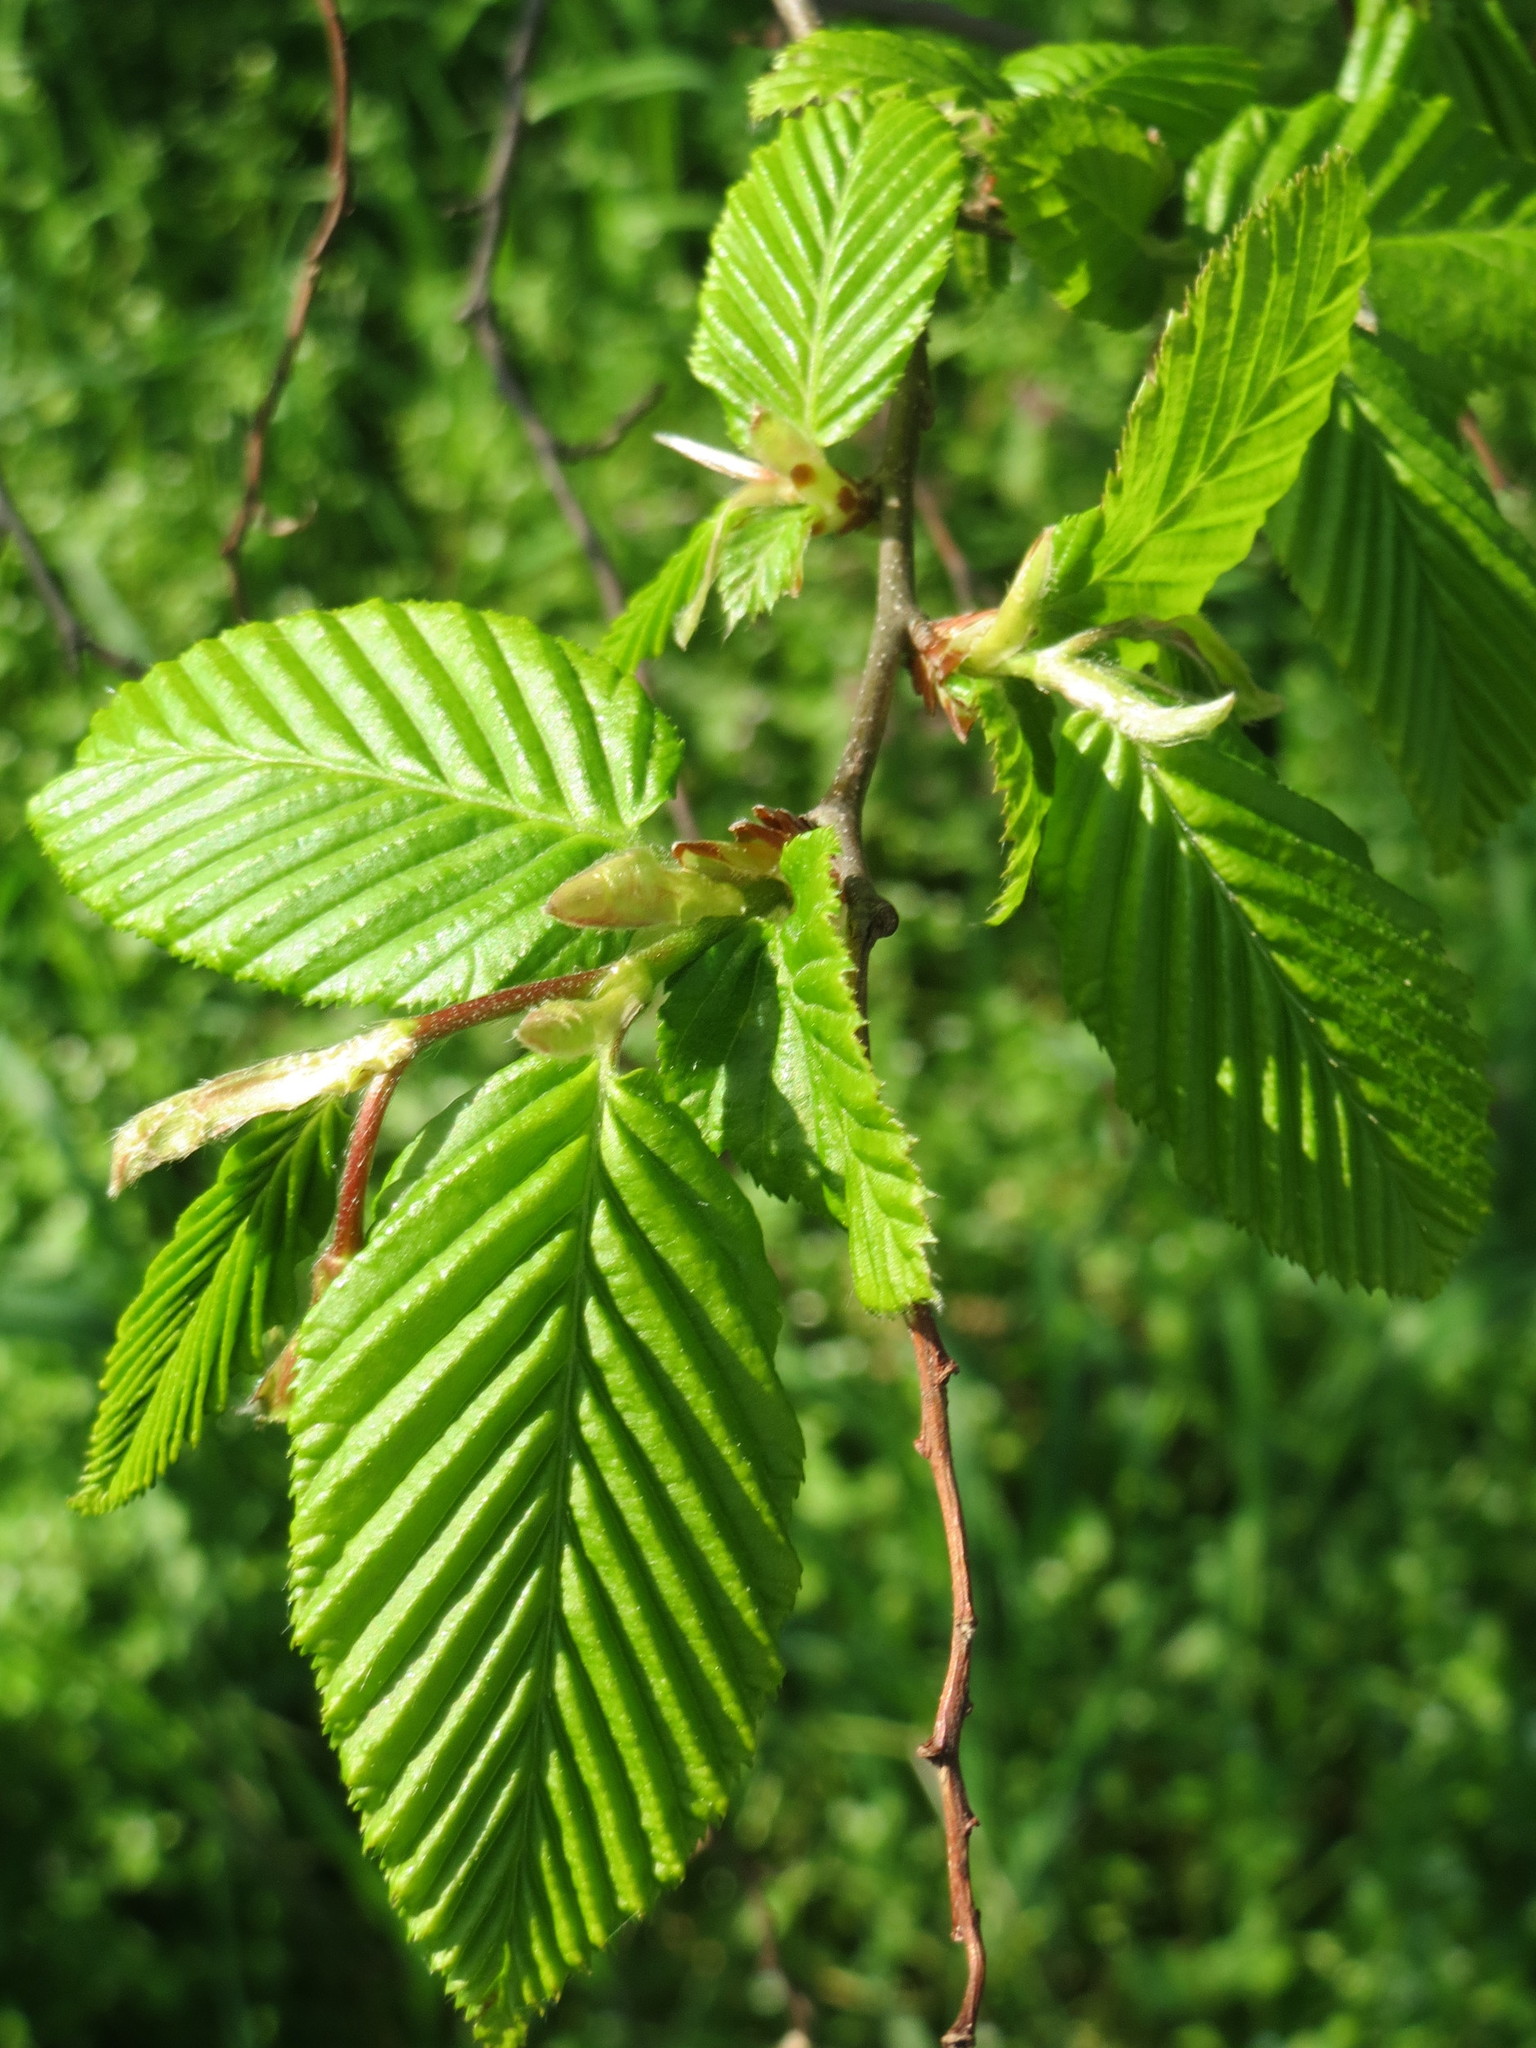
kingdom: Plantae
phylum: Tracheophyta
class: Magnoliopsida
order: Fagales
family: Betulaceae
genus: Carpinus
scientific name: Carpinus betulus
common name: Hornbeam
